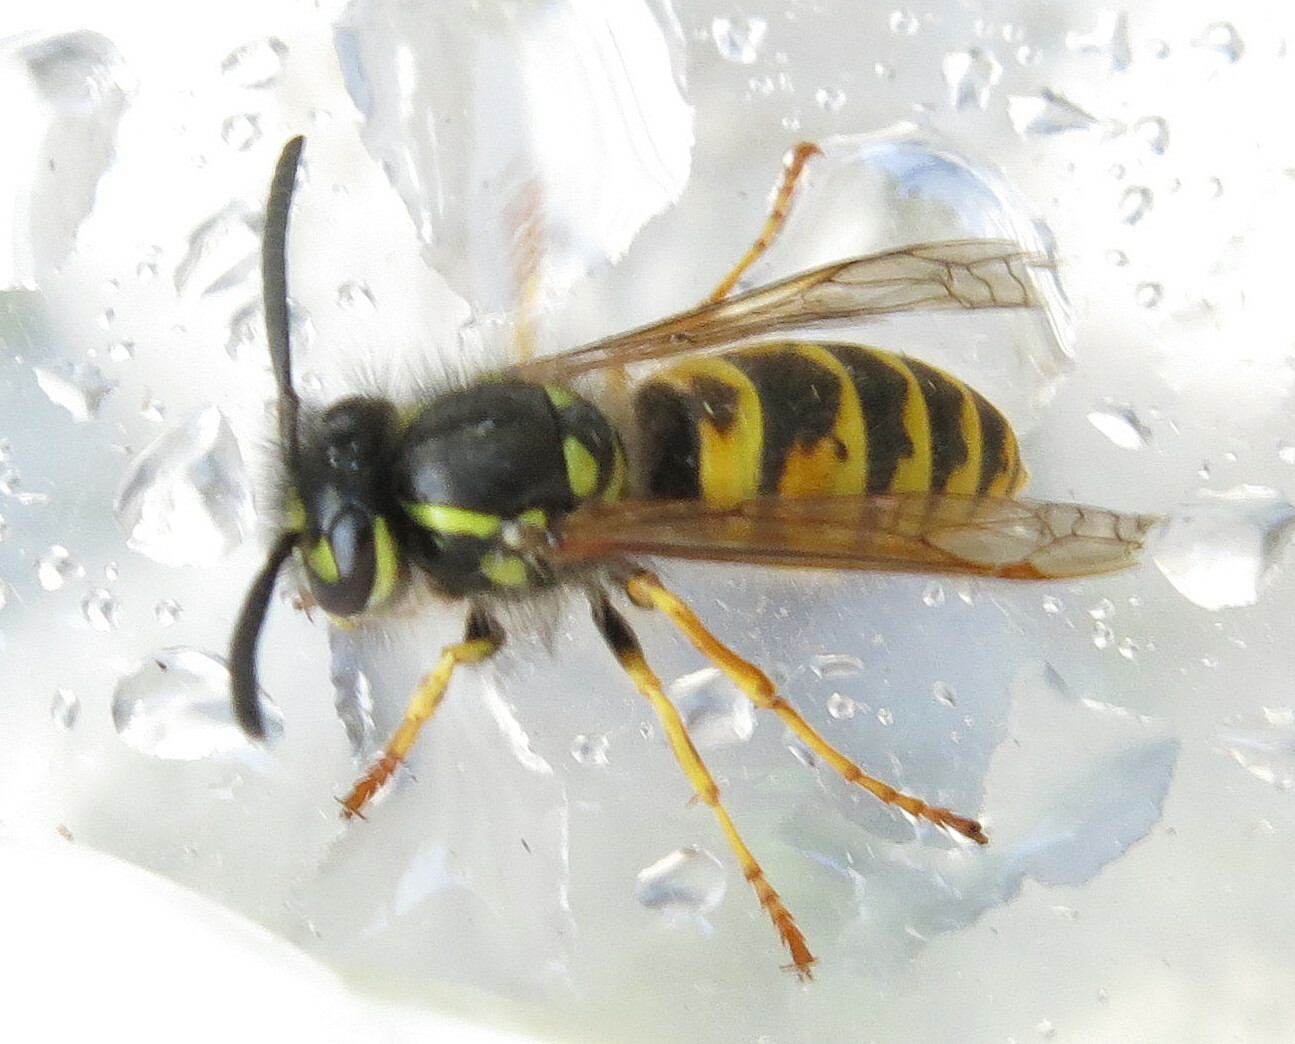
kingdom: Animalia
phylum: Arthropoda
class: Insecta
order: Hymenoptera
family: Vespidae
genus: Vespula
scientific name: Vespula vulgaris
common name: Common wasp
